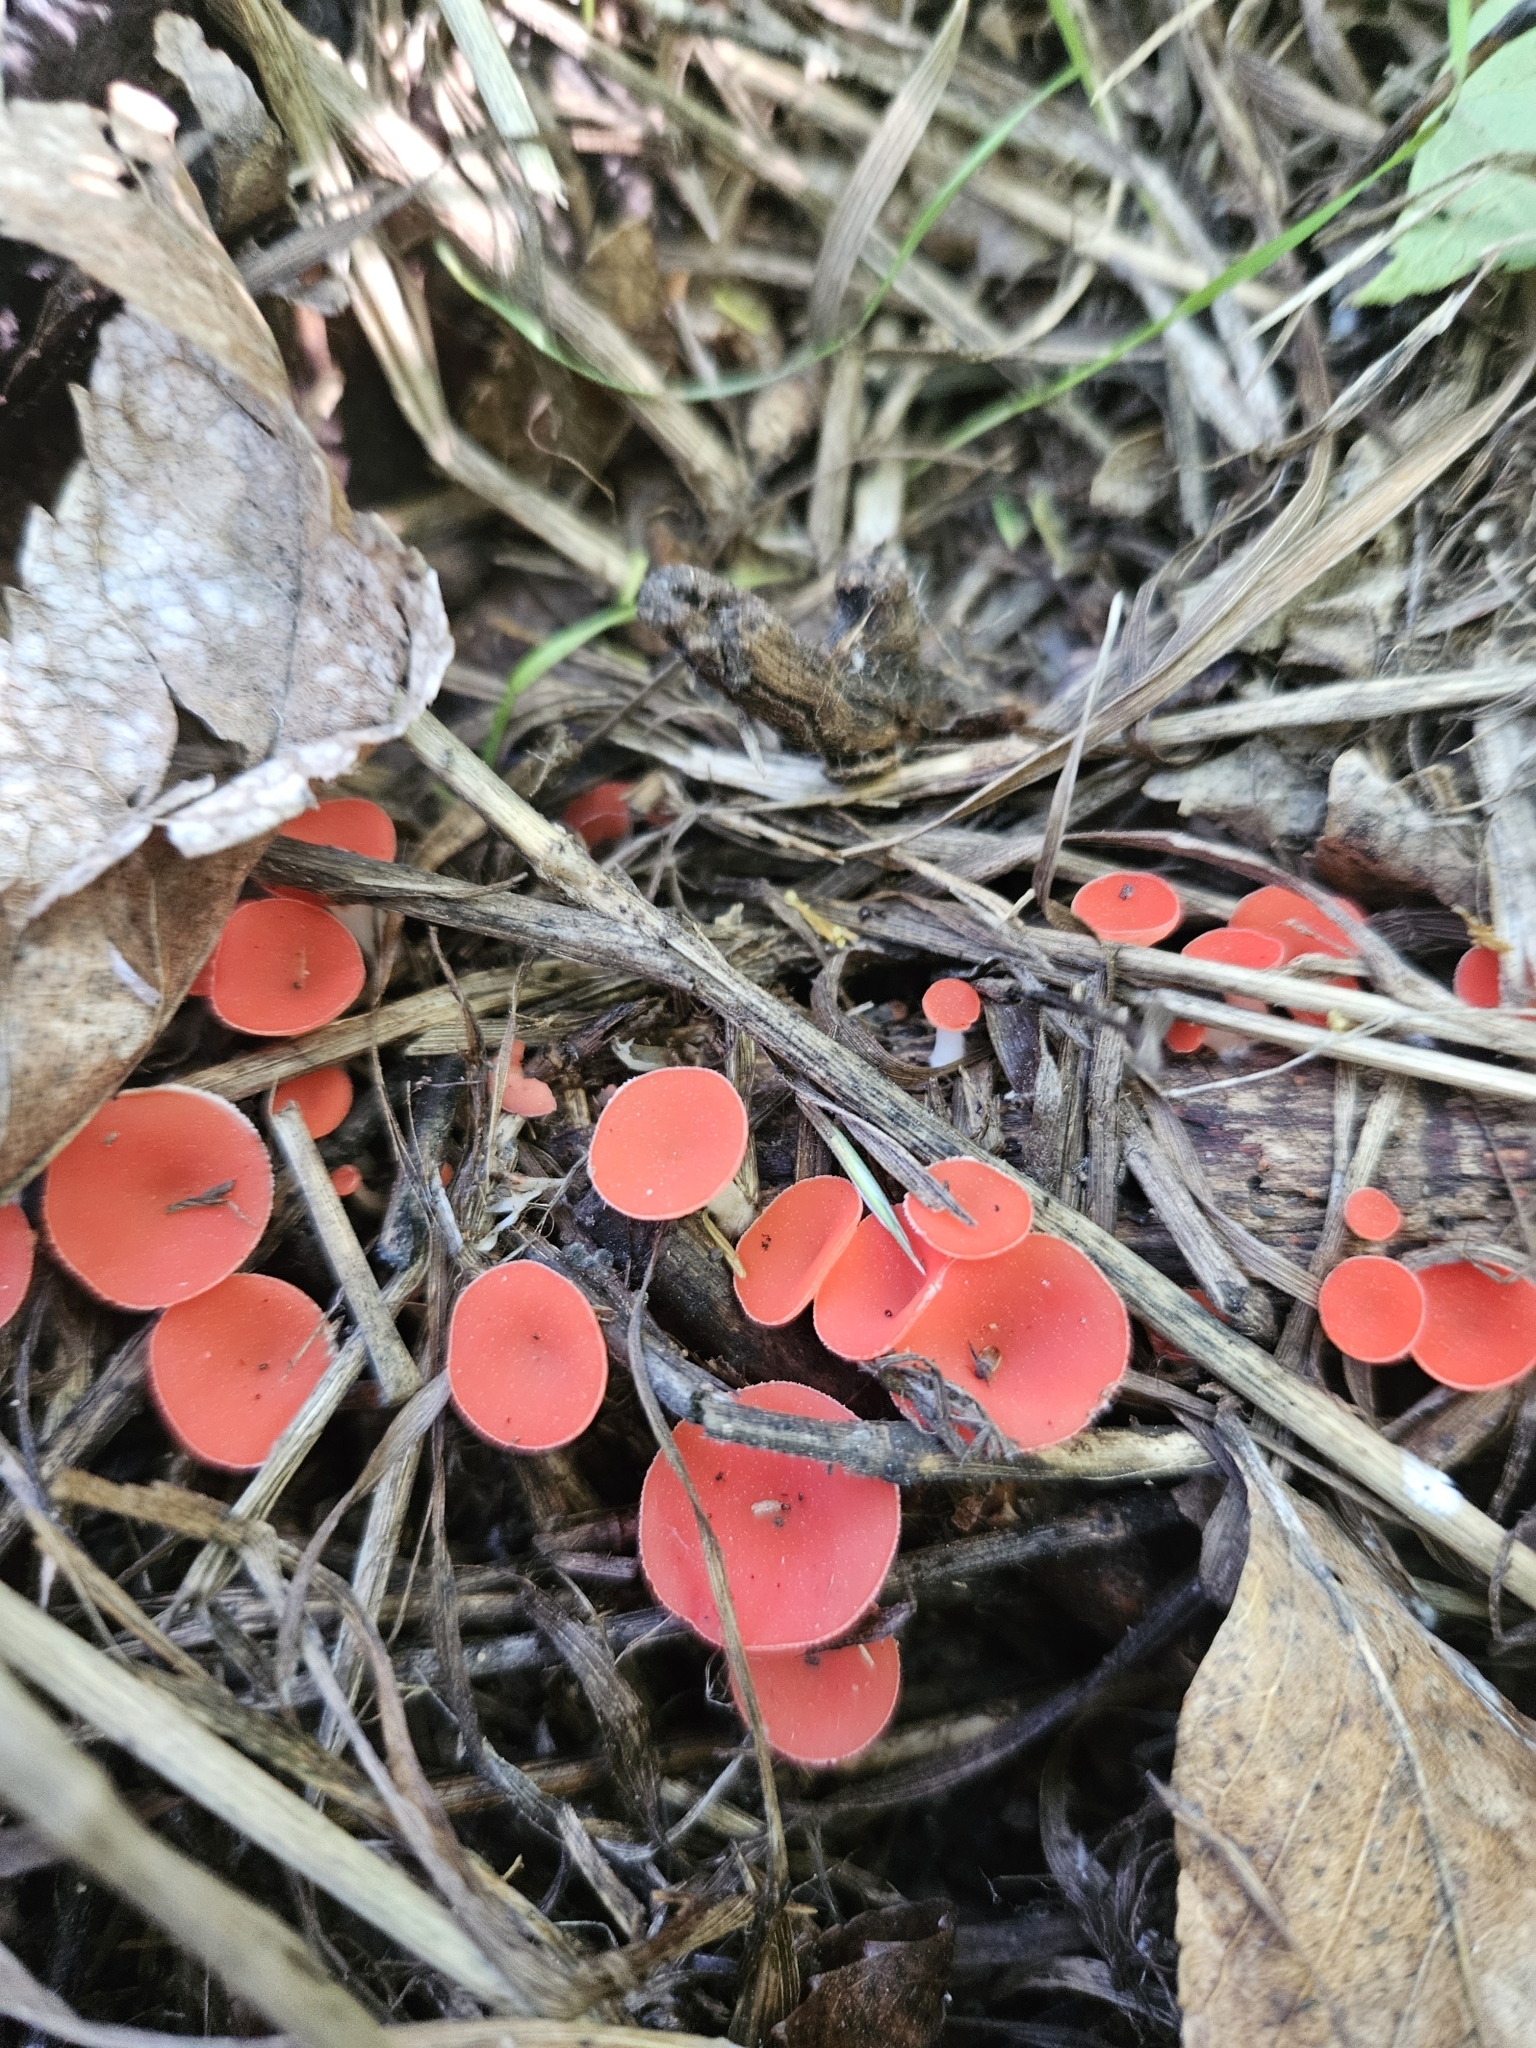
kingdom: Fungi
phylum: Ascomycota
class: Pezizomycetes
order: Pezizales
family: Sarcoscyphaceae
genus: Sarcoscypha
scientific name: Sarcoscypha occidentalis
